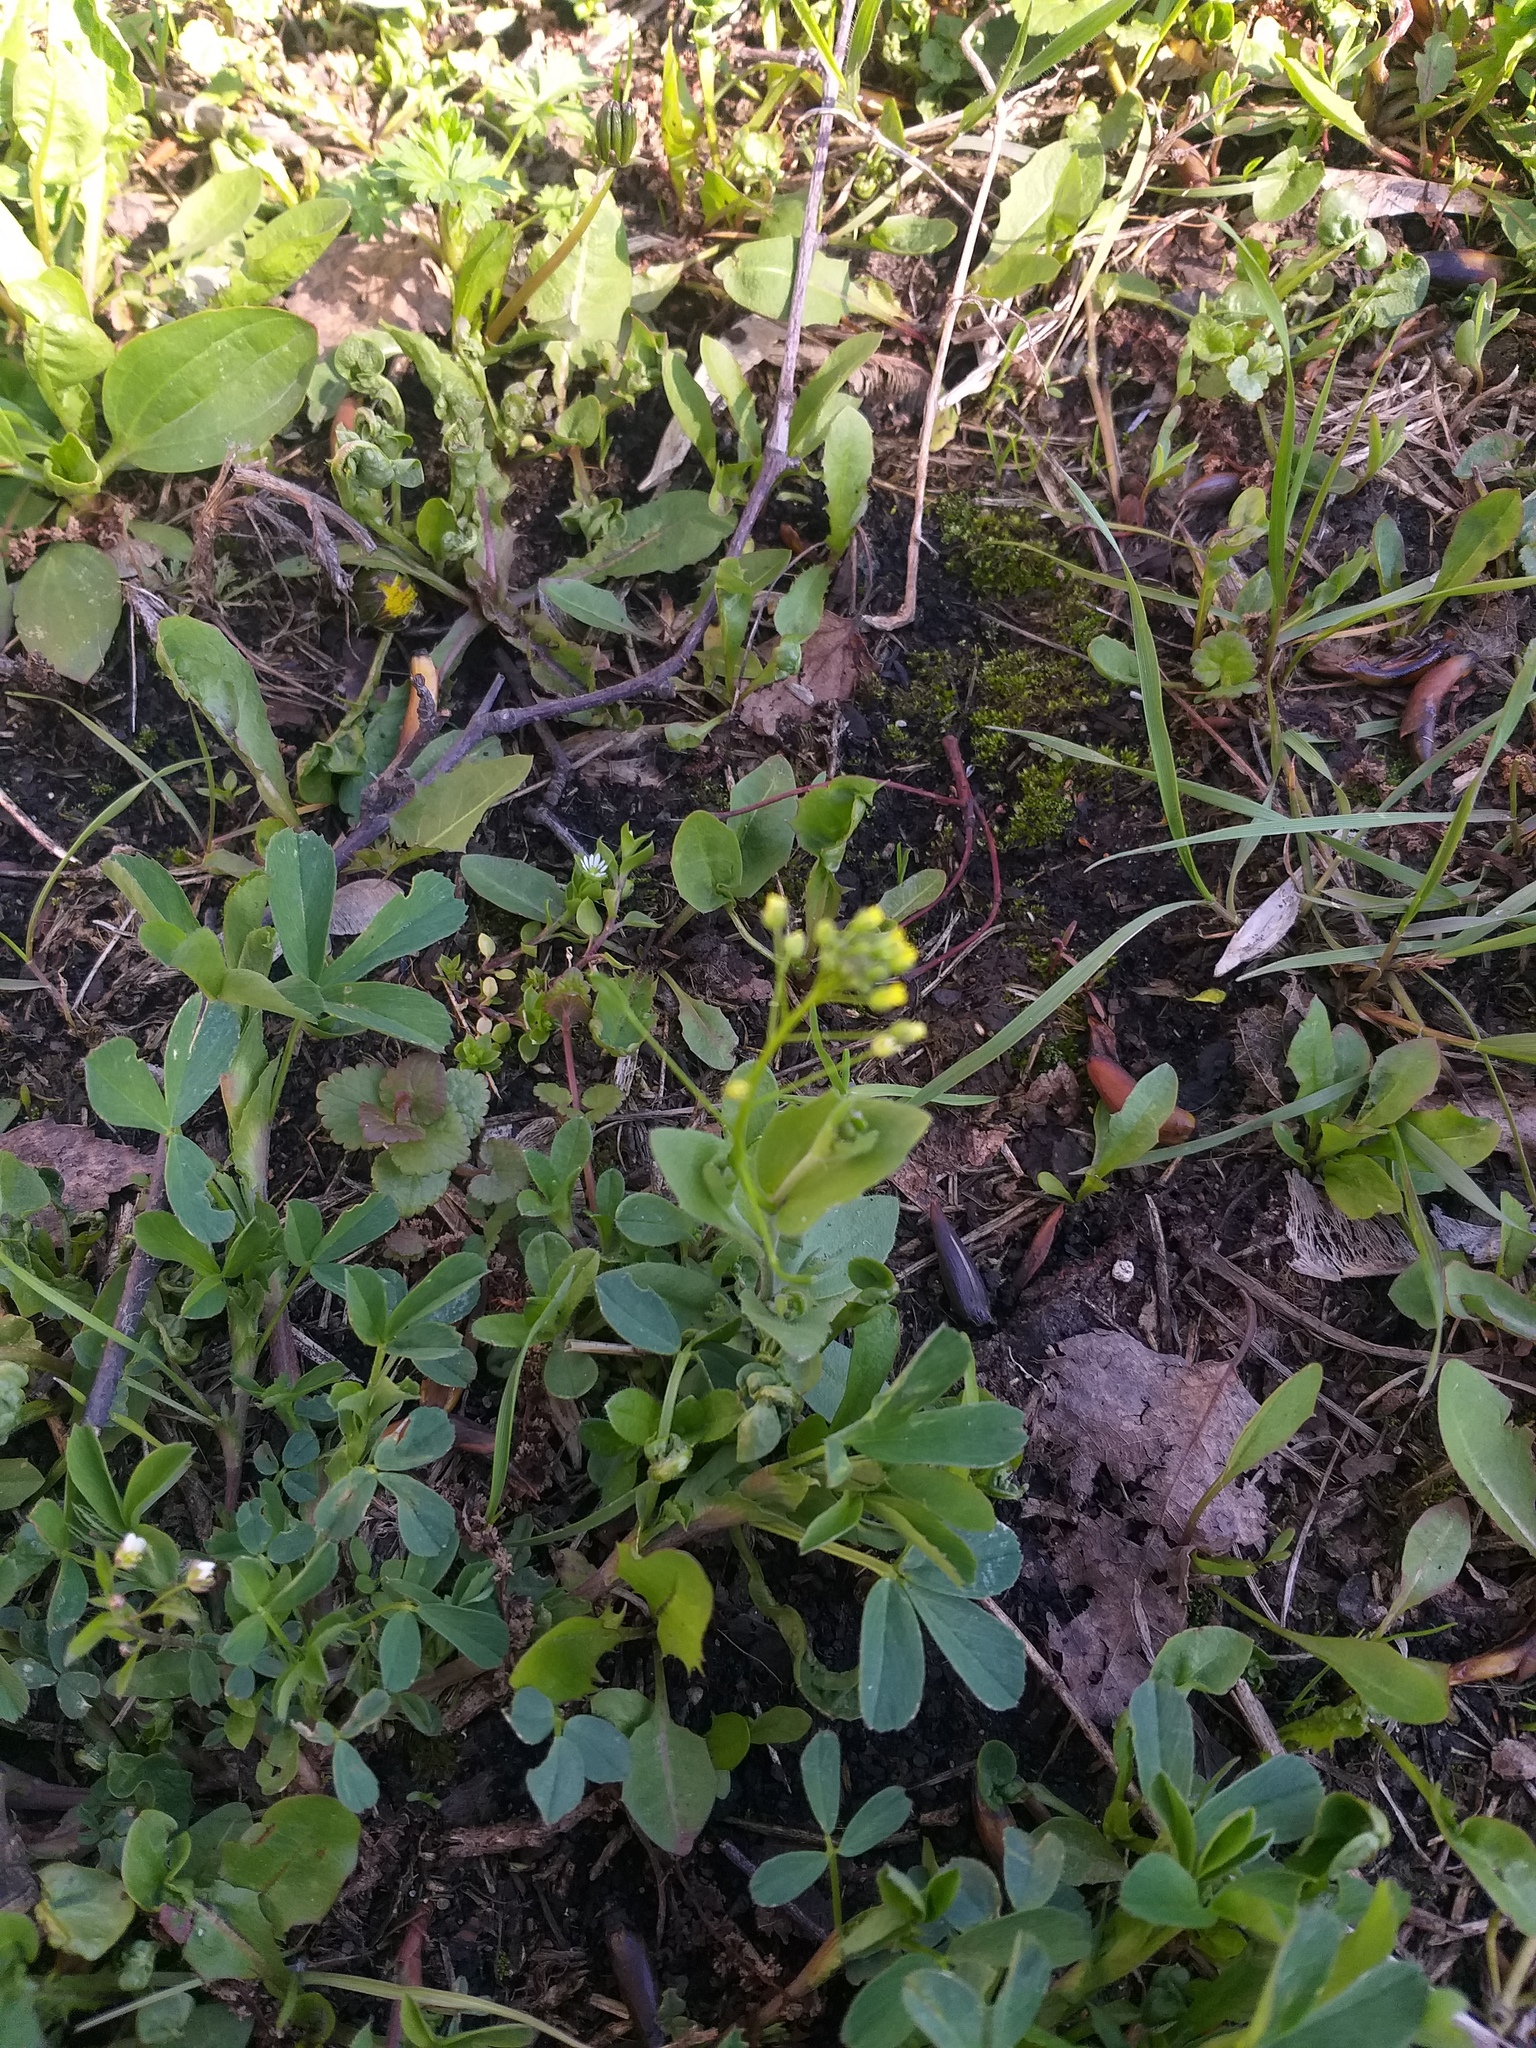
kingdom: Plantae
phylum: Tracheophyta
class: Magnoliopsida
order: Brassicales
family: Brassicaceae
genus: Draba
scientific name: Draba nemorosa
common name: Wood whitlow-grass
